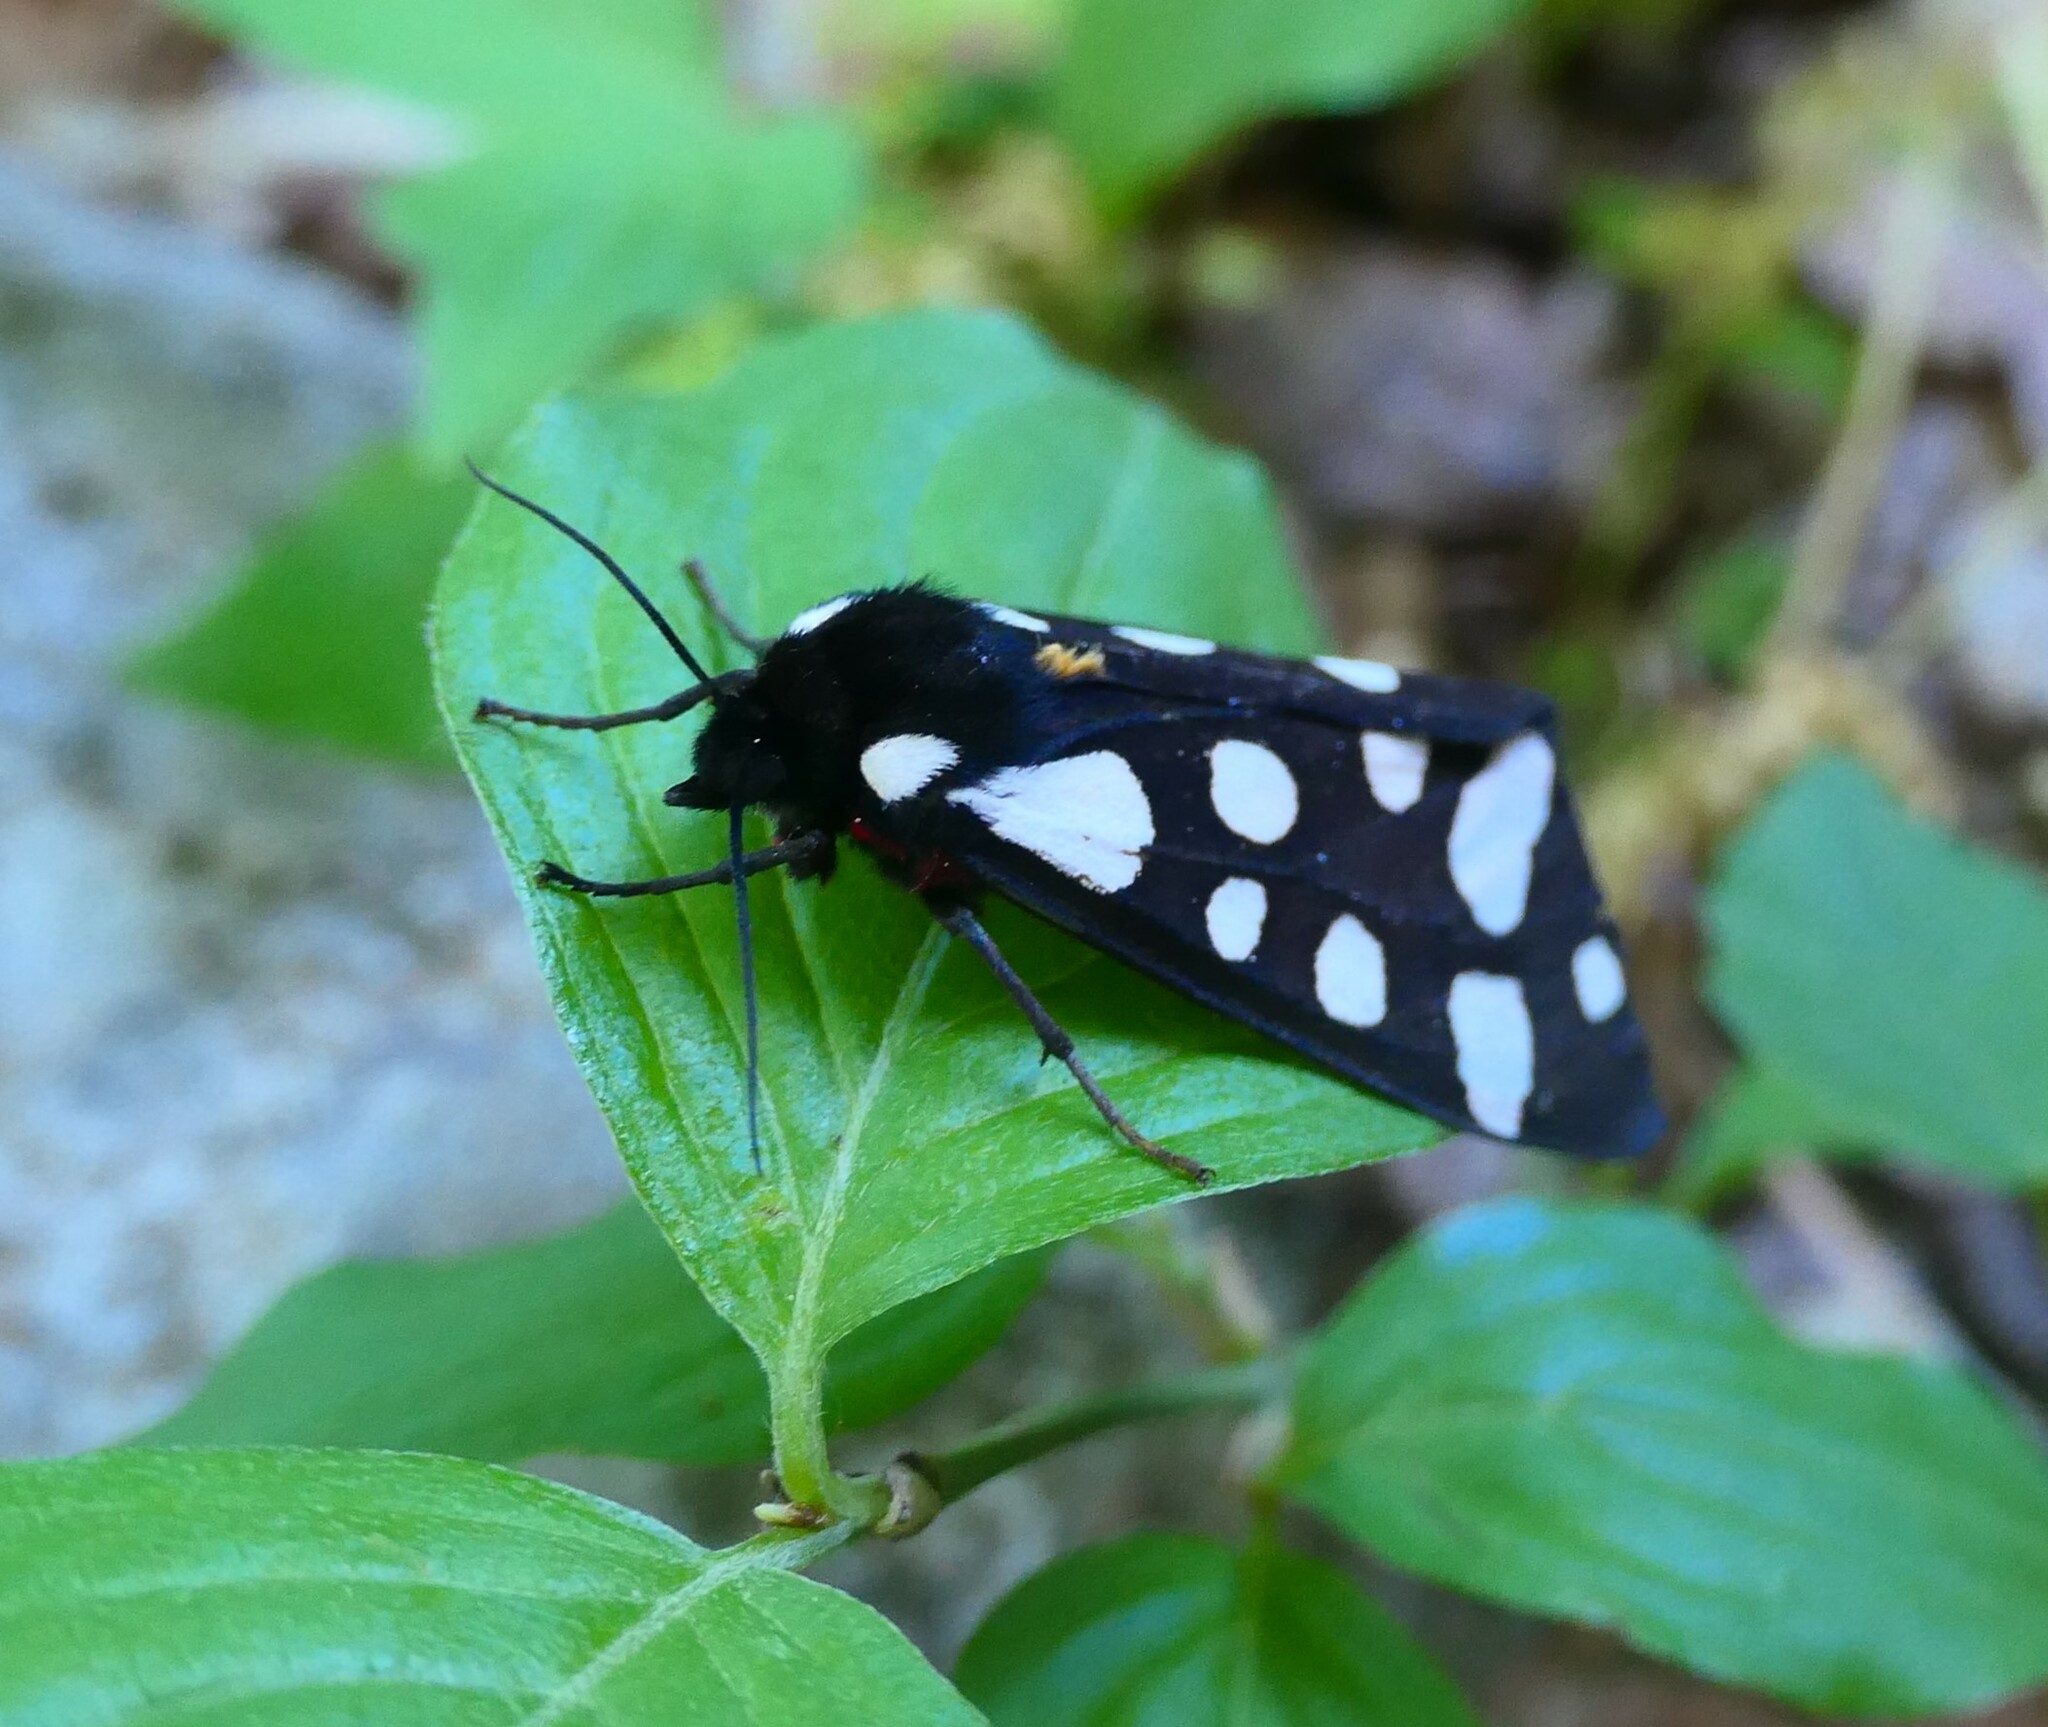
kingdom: Animalia
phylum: Arthropoda
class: Insecta
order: Lepidoptera
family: Erebidae
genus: Epicallia
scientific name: Epicallia villica
